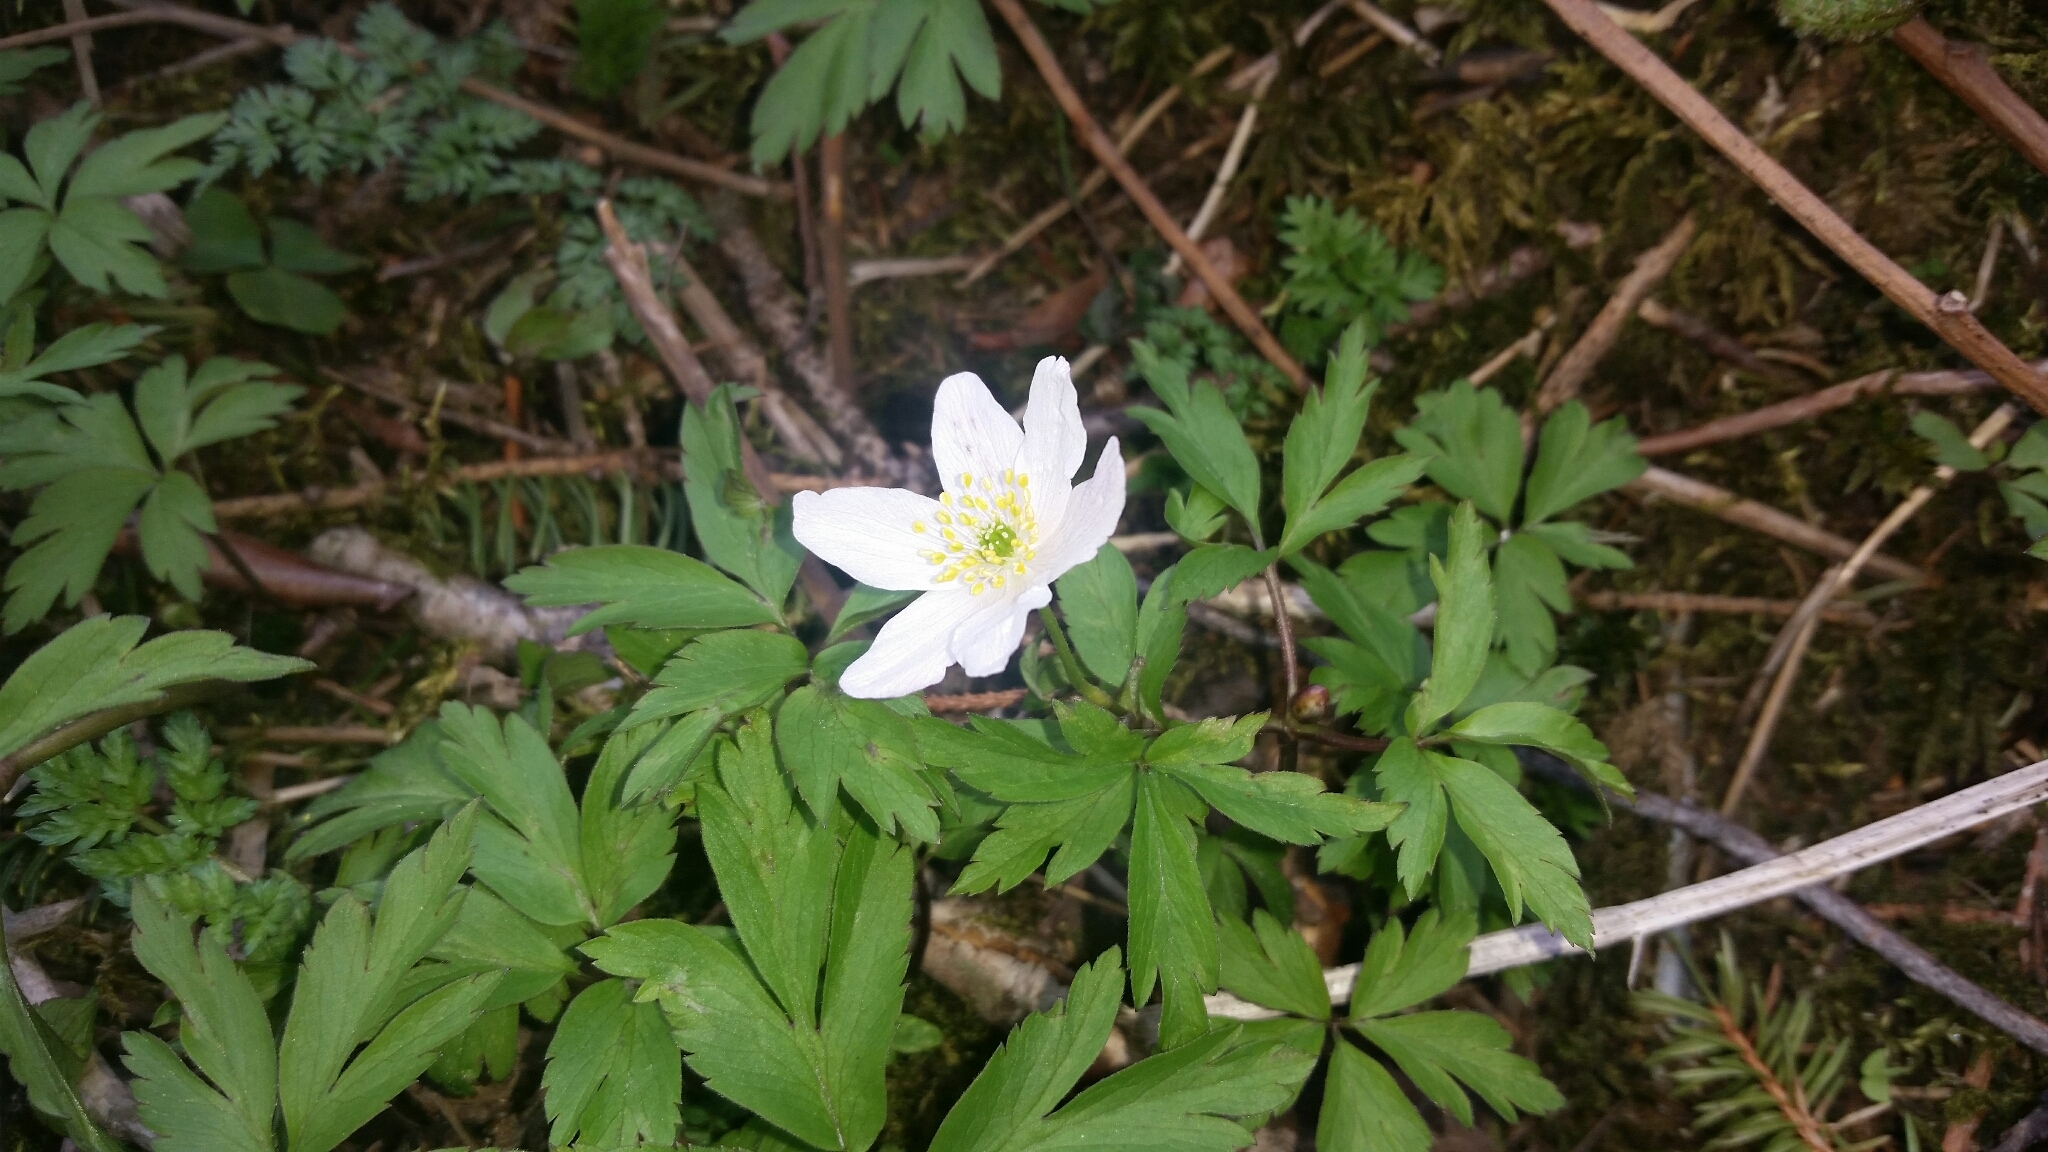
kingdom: Plantae
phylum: Tracheophyta
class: Magnoliopsida
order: Ranunculales
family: Ranunculaceae
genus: Anemone
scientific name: Anemone nemorosa
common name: Wood anemone
